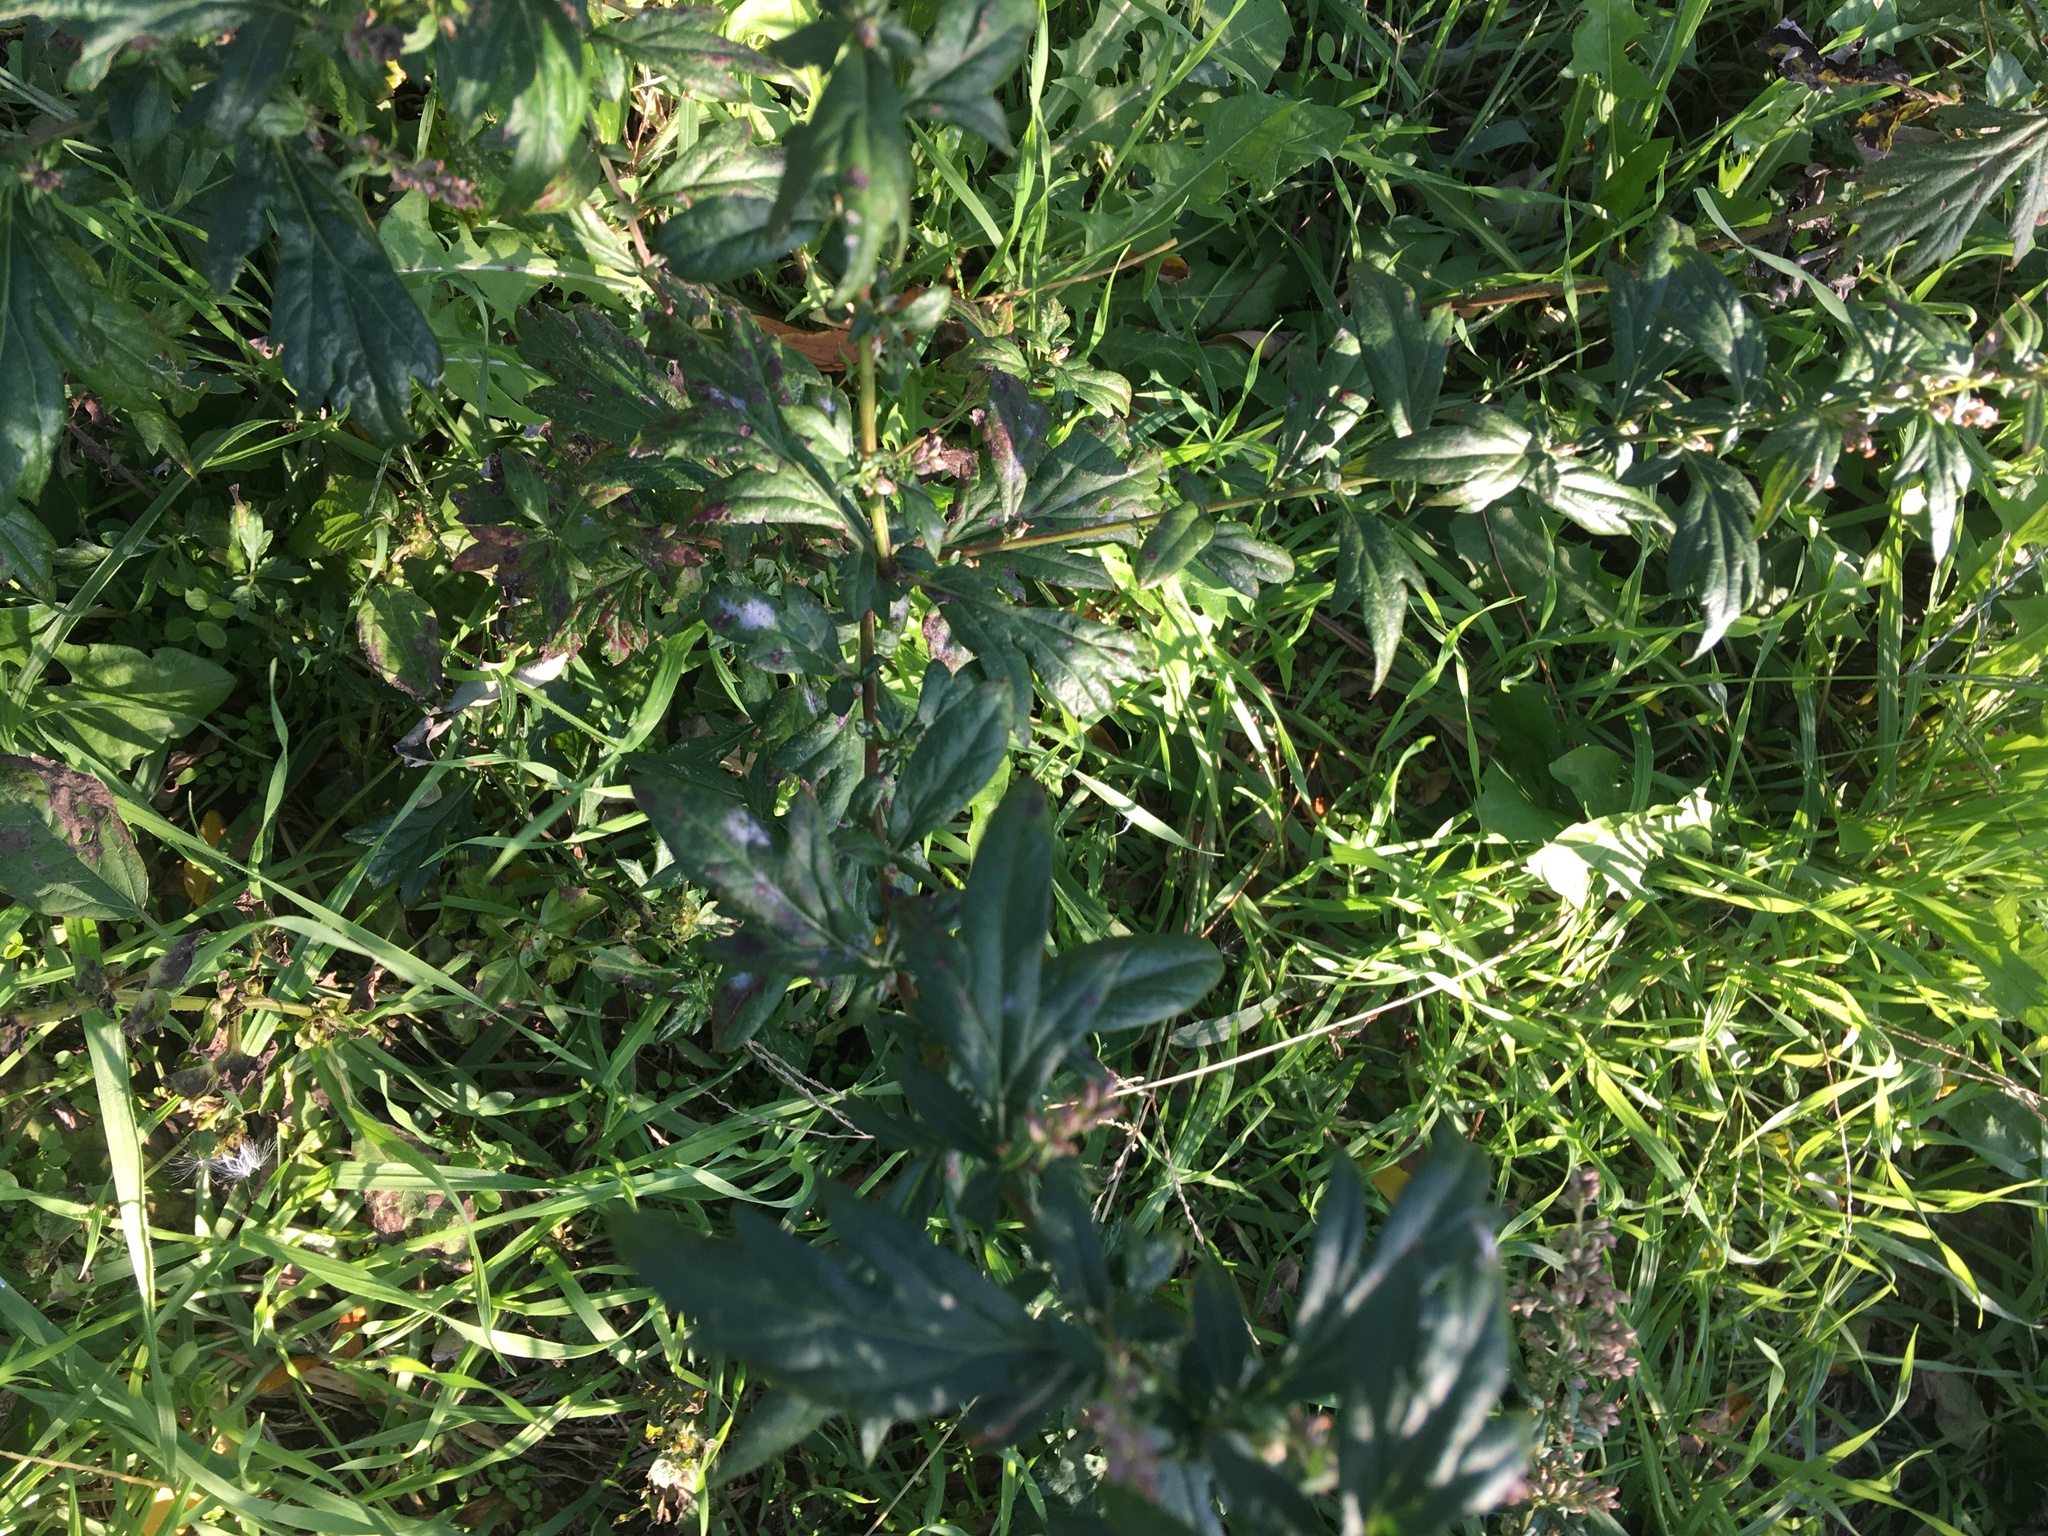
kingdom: Plantae
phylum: Tracheophyta
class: Magnoliopsida
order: Asterales
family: Asteraceae
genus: Artemisia
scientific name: Artemisia vulgaris
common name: Mugwort
